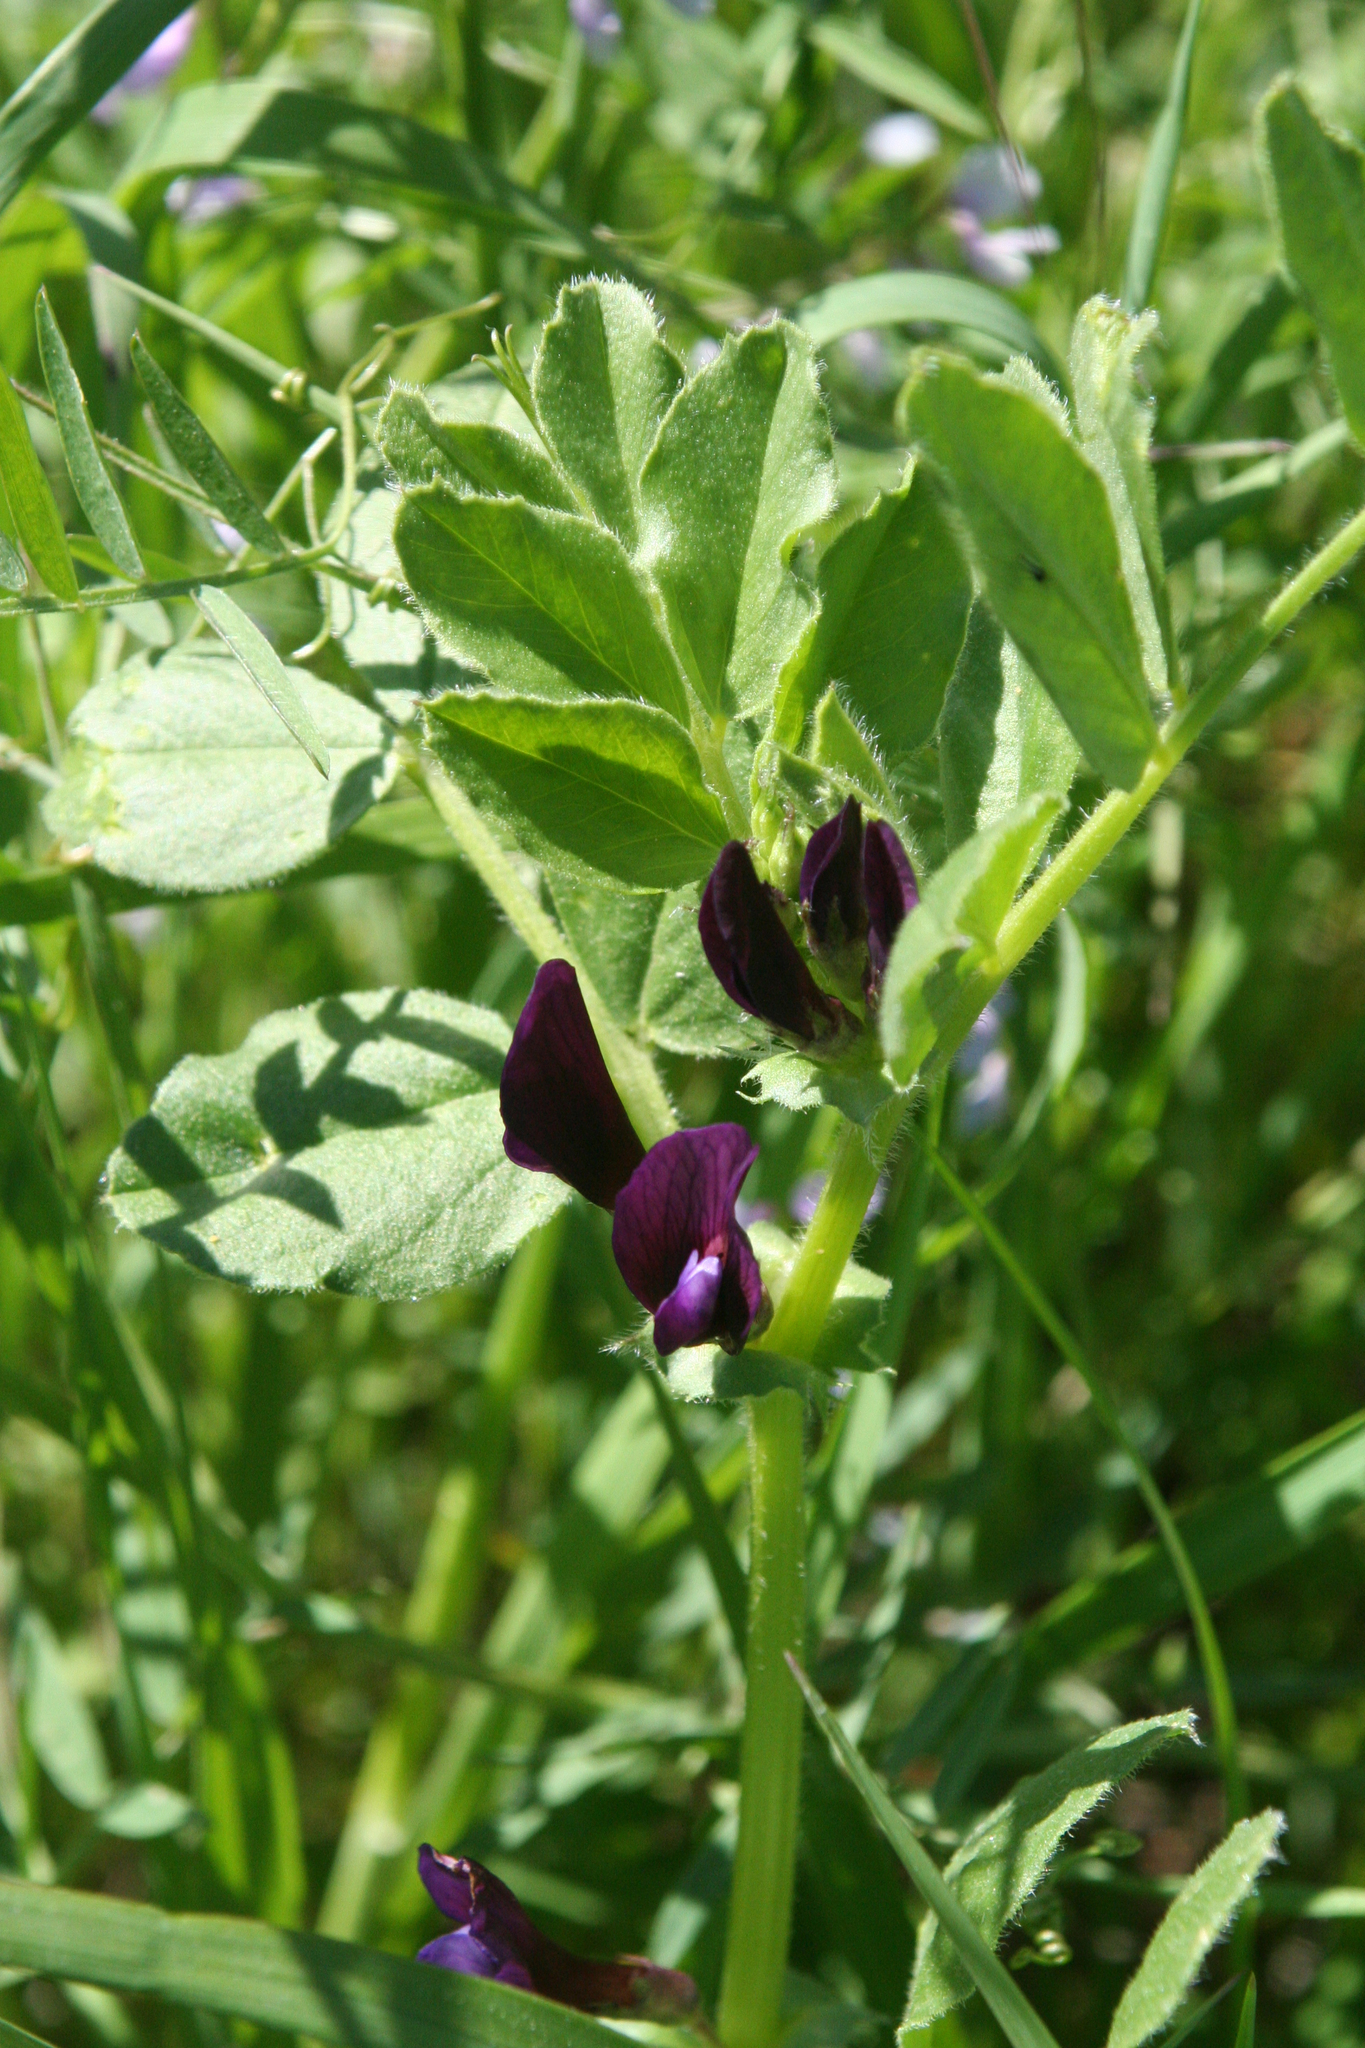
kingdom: Plantae
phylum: Tracheophyta
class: Magnoliopsida
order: Fabales
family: Fabaceae
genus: Vicia
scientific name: Vicia narbonensis
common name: Narbonne vetch
